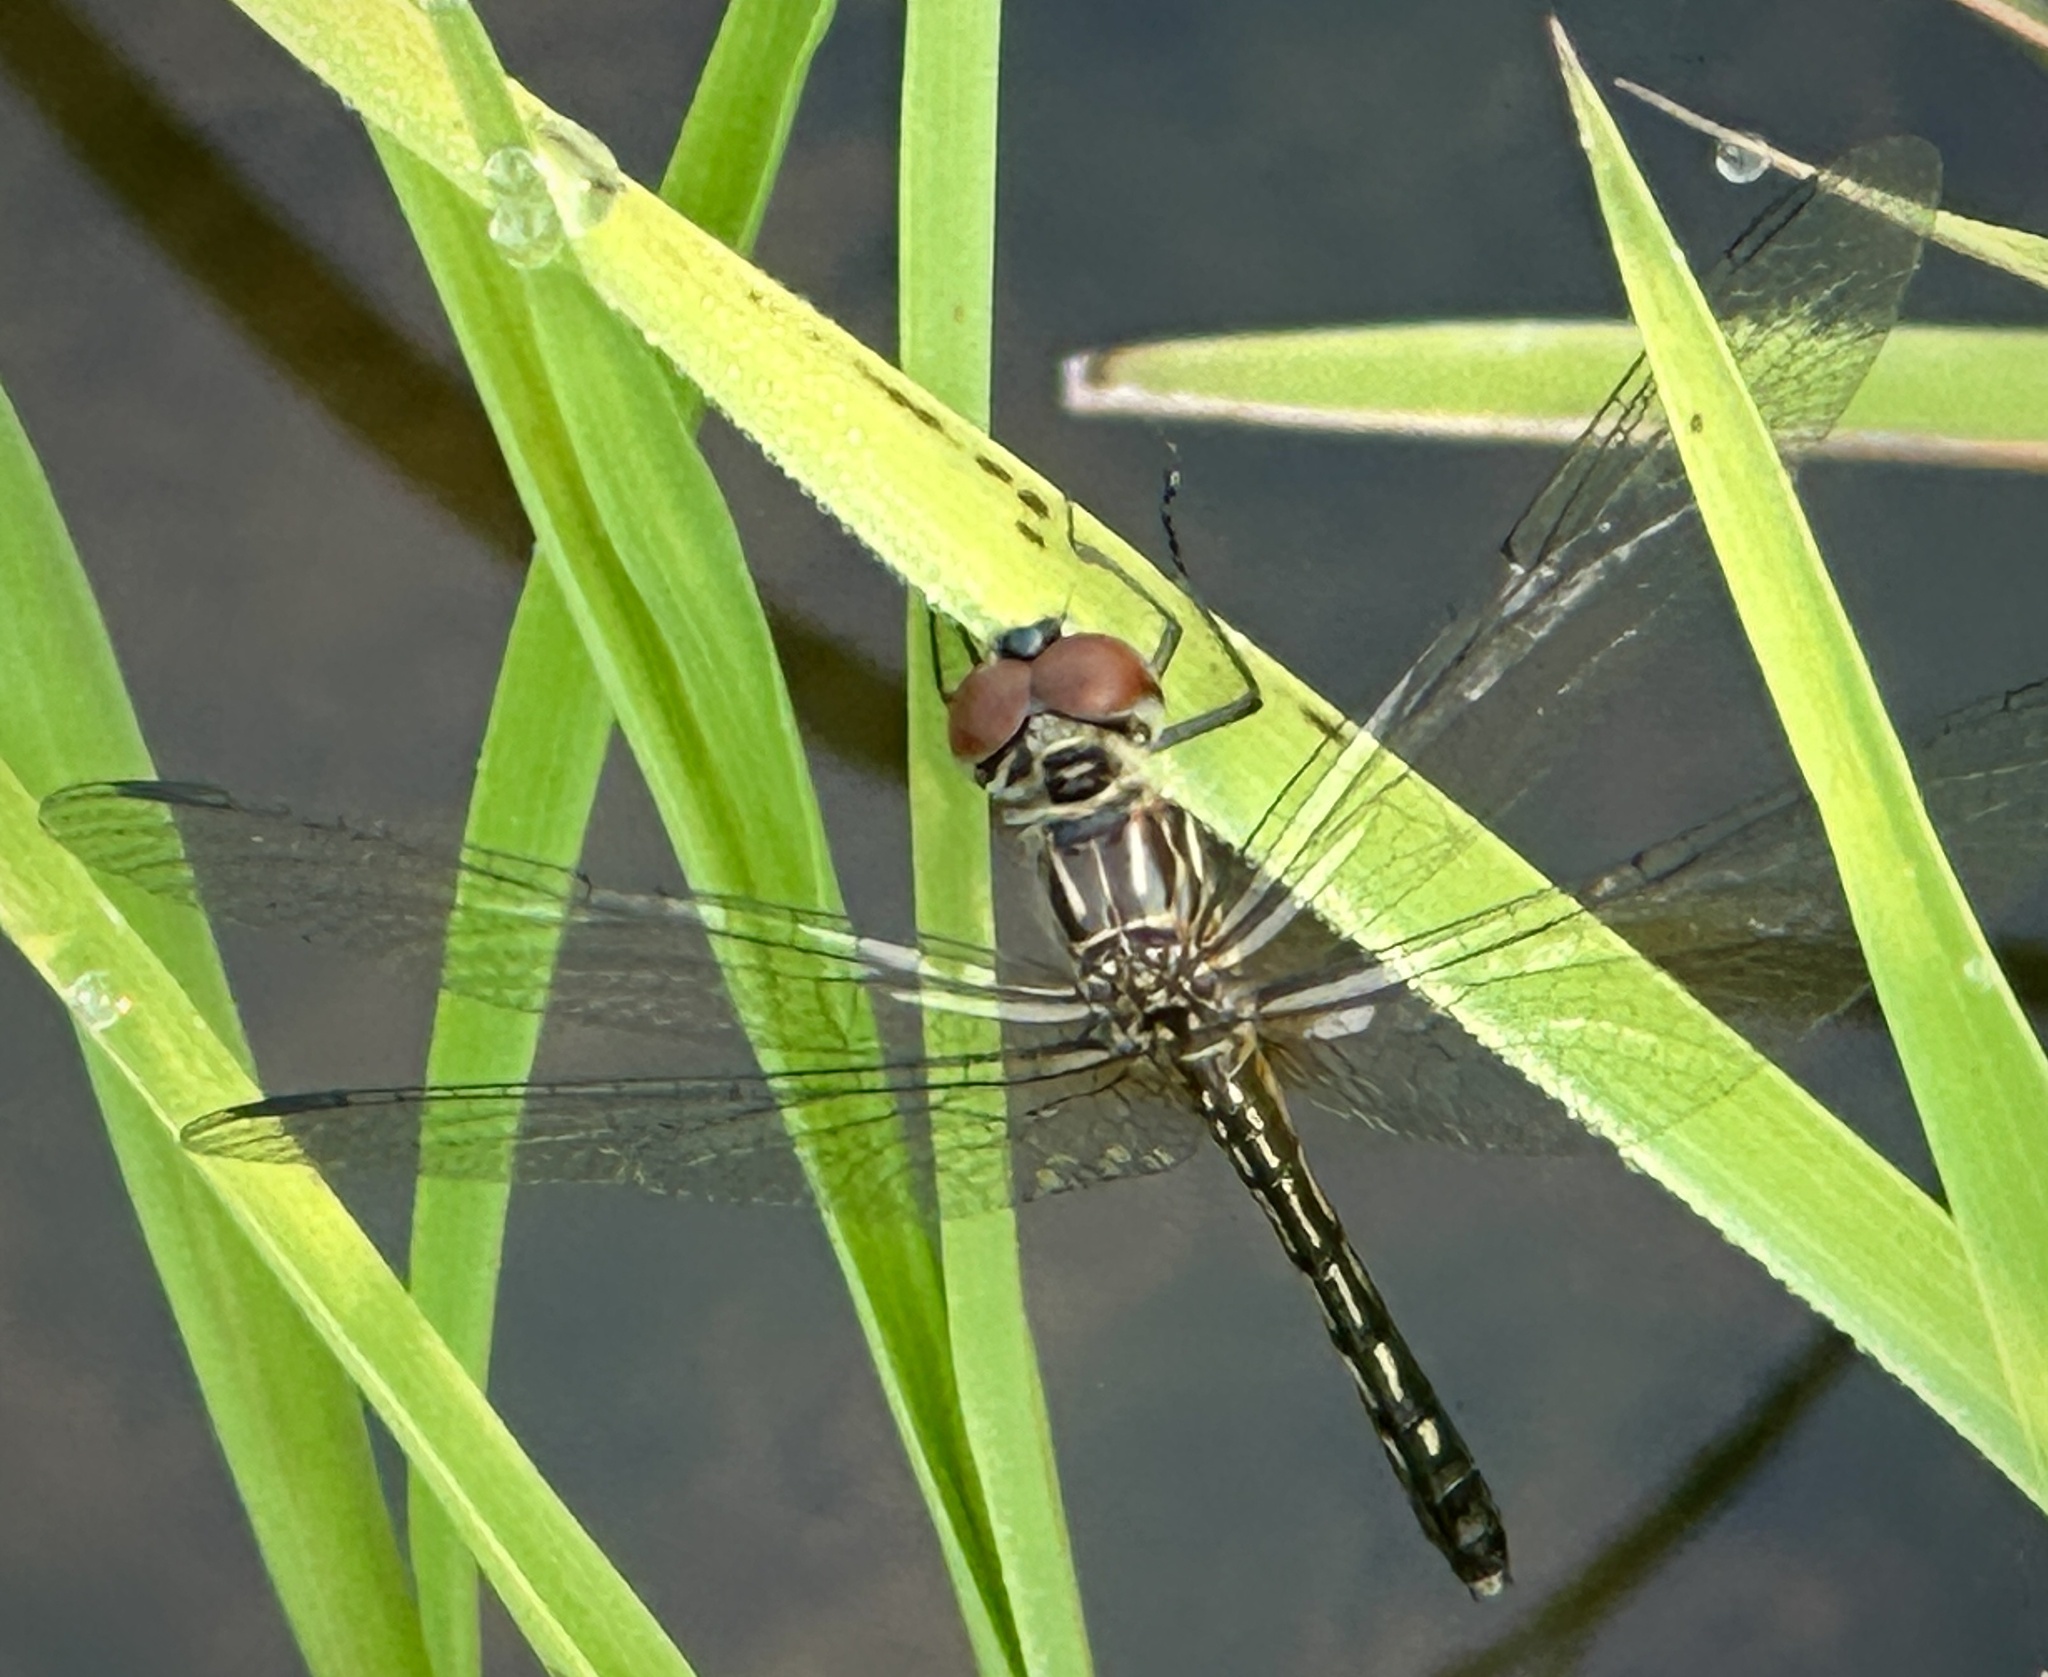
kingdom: Animalia
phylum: Arthropoda
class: Insecta
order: Odonata
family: Libellulidae
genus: Pachydiplax
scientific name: Pachydiplax longipennis
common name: Blue dasher
